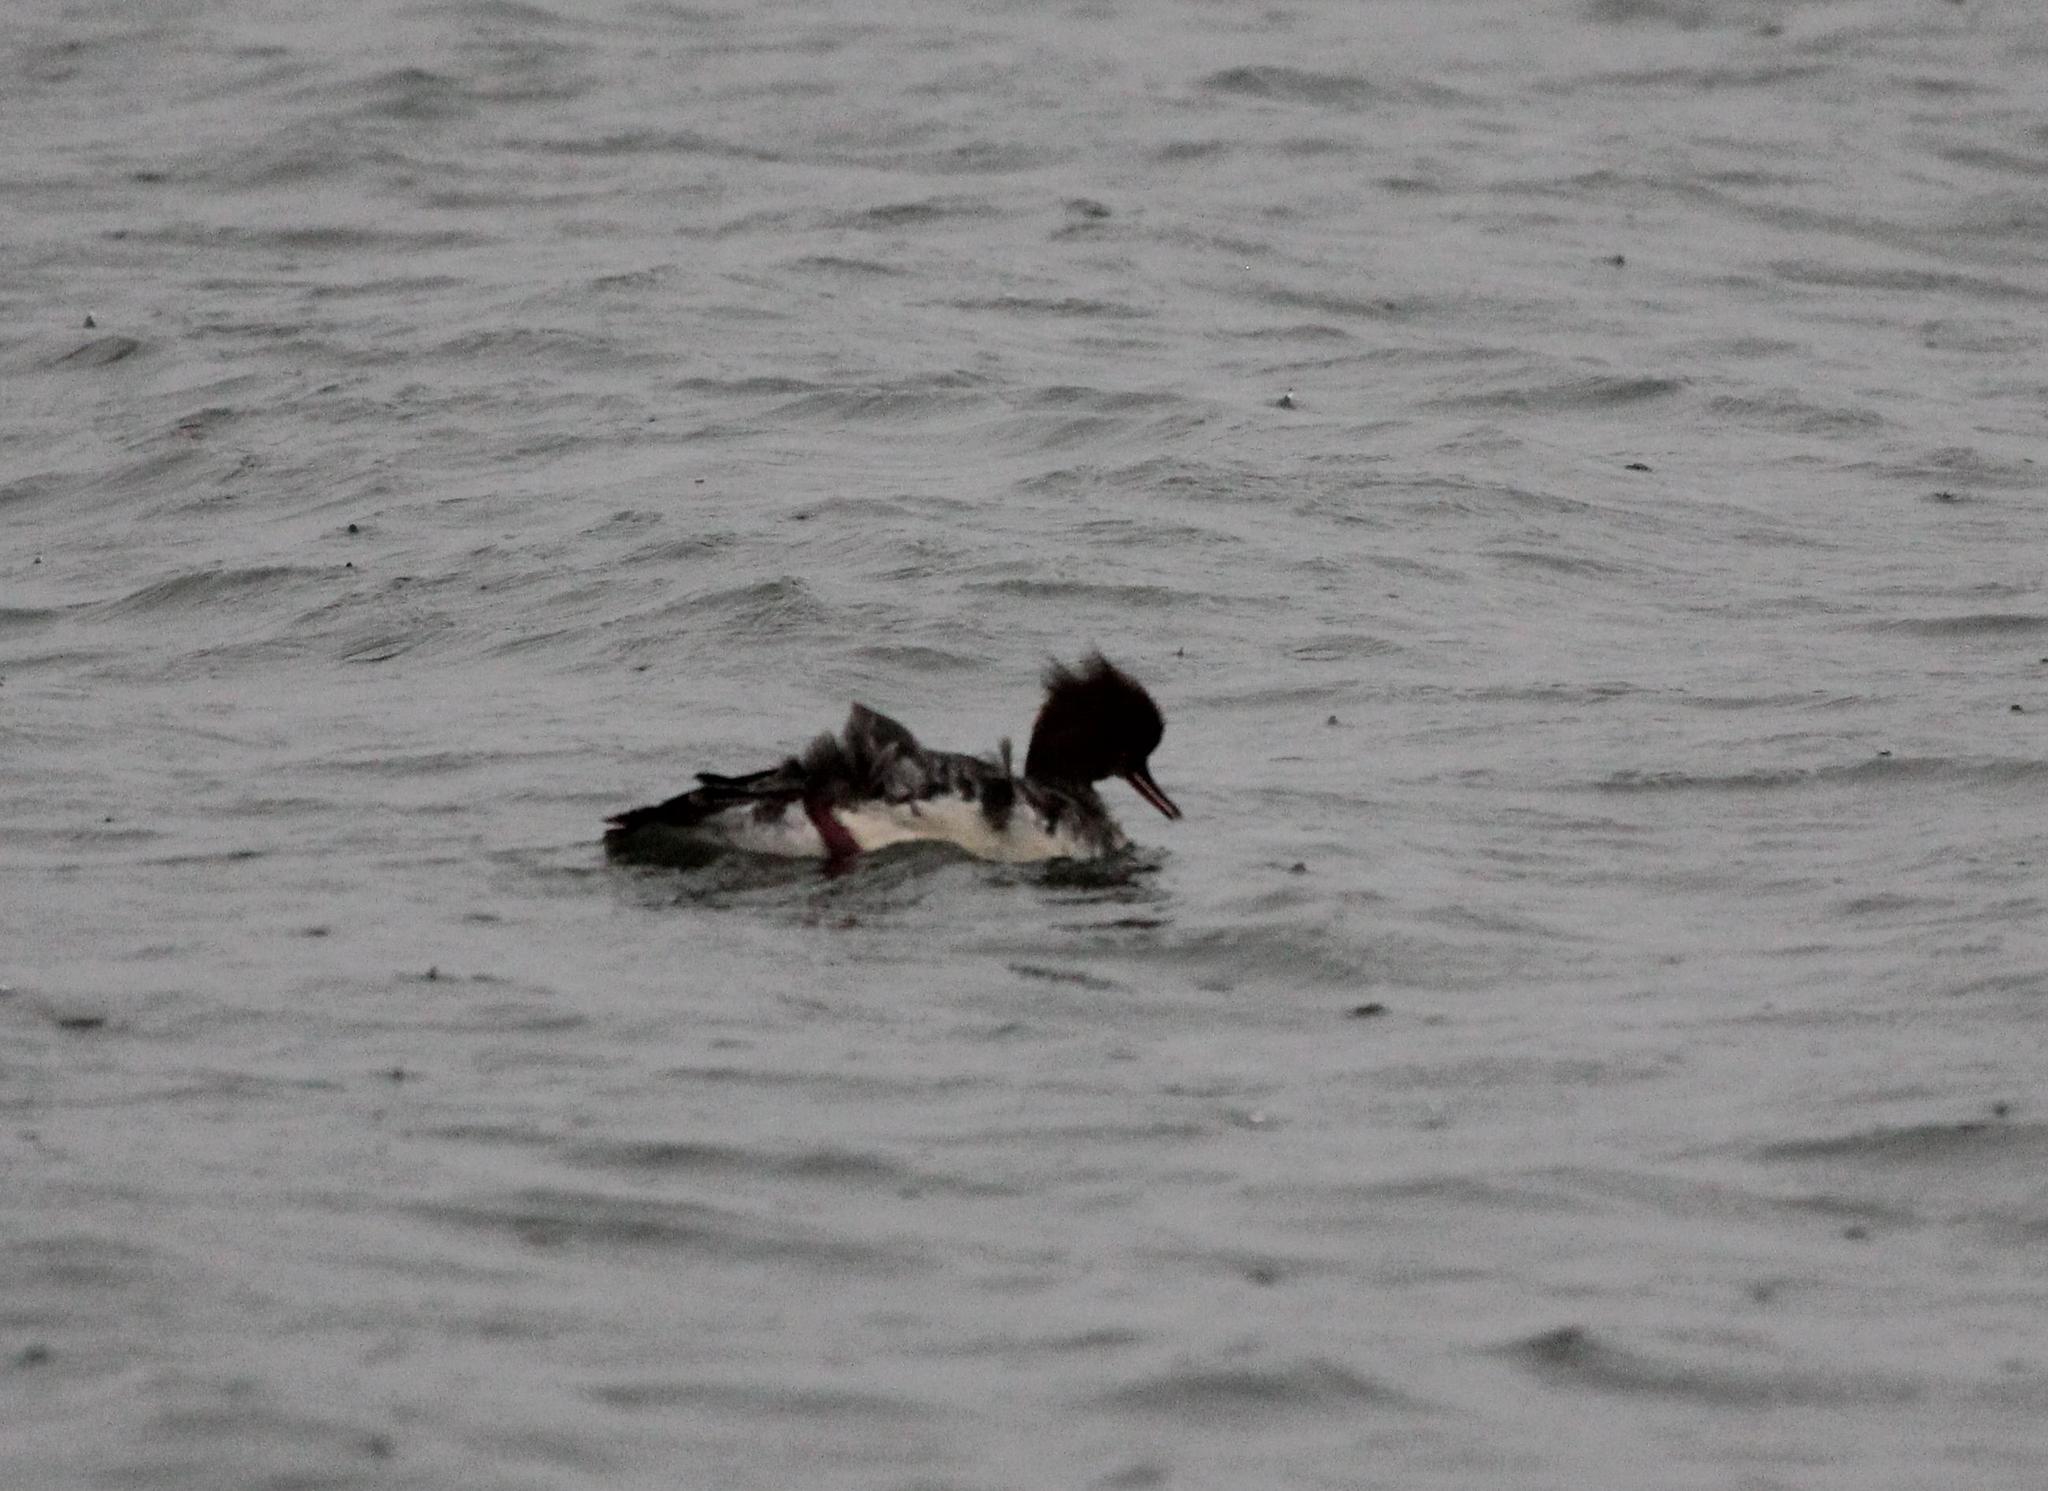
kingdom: Animalia
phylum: Chordata
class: Aves
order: Anseriformes
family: Anatidae
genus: Mergus
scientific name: Mergus serrator
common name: Red-breasted merganser
